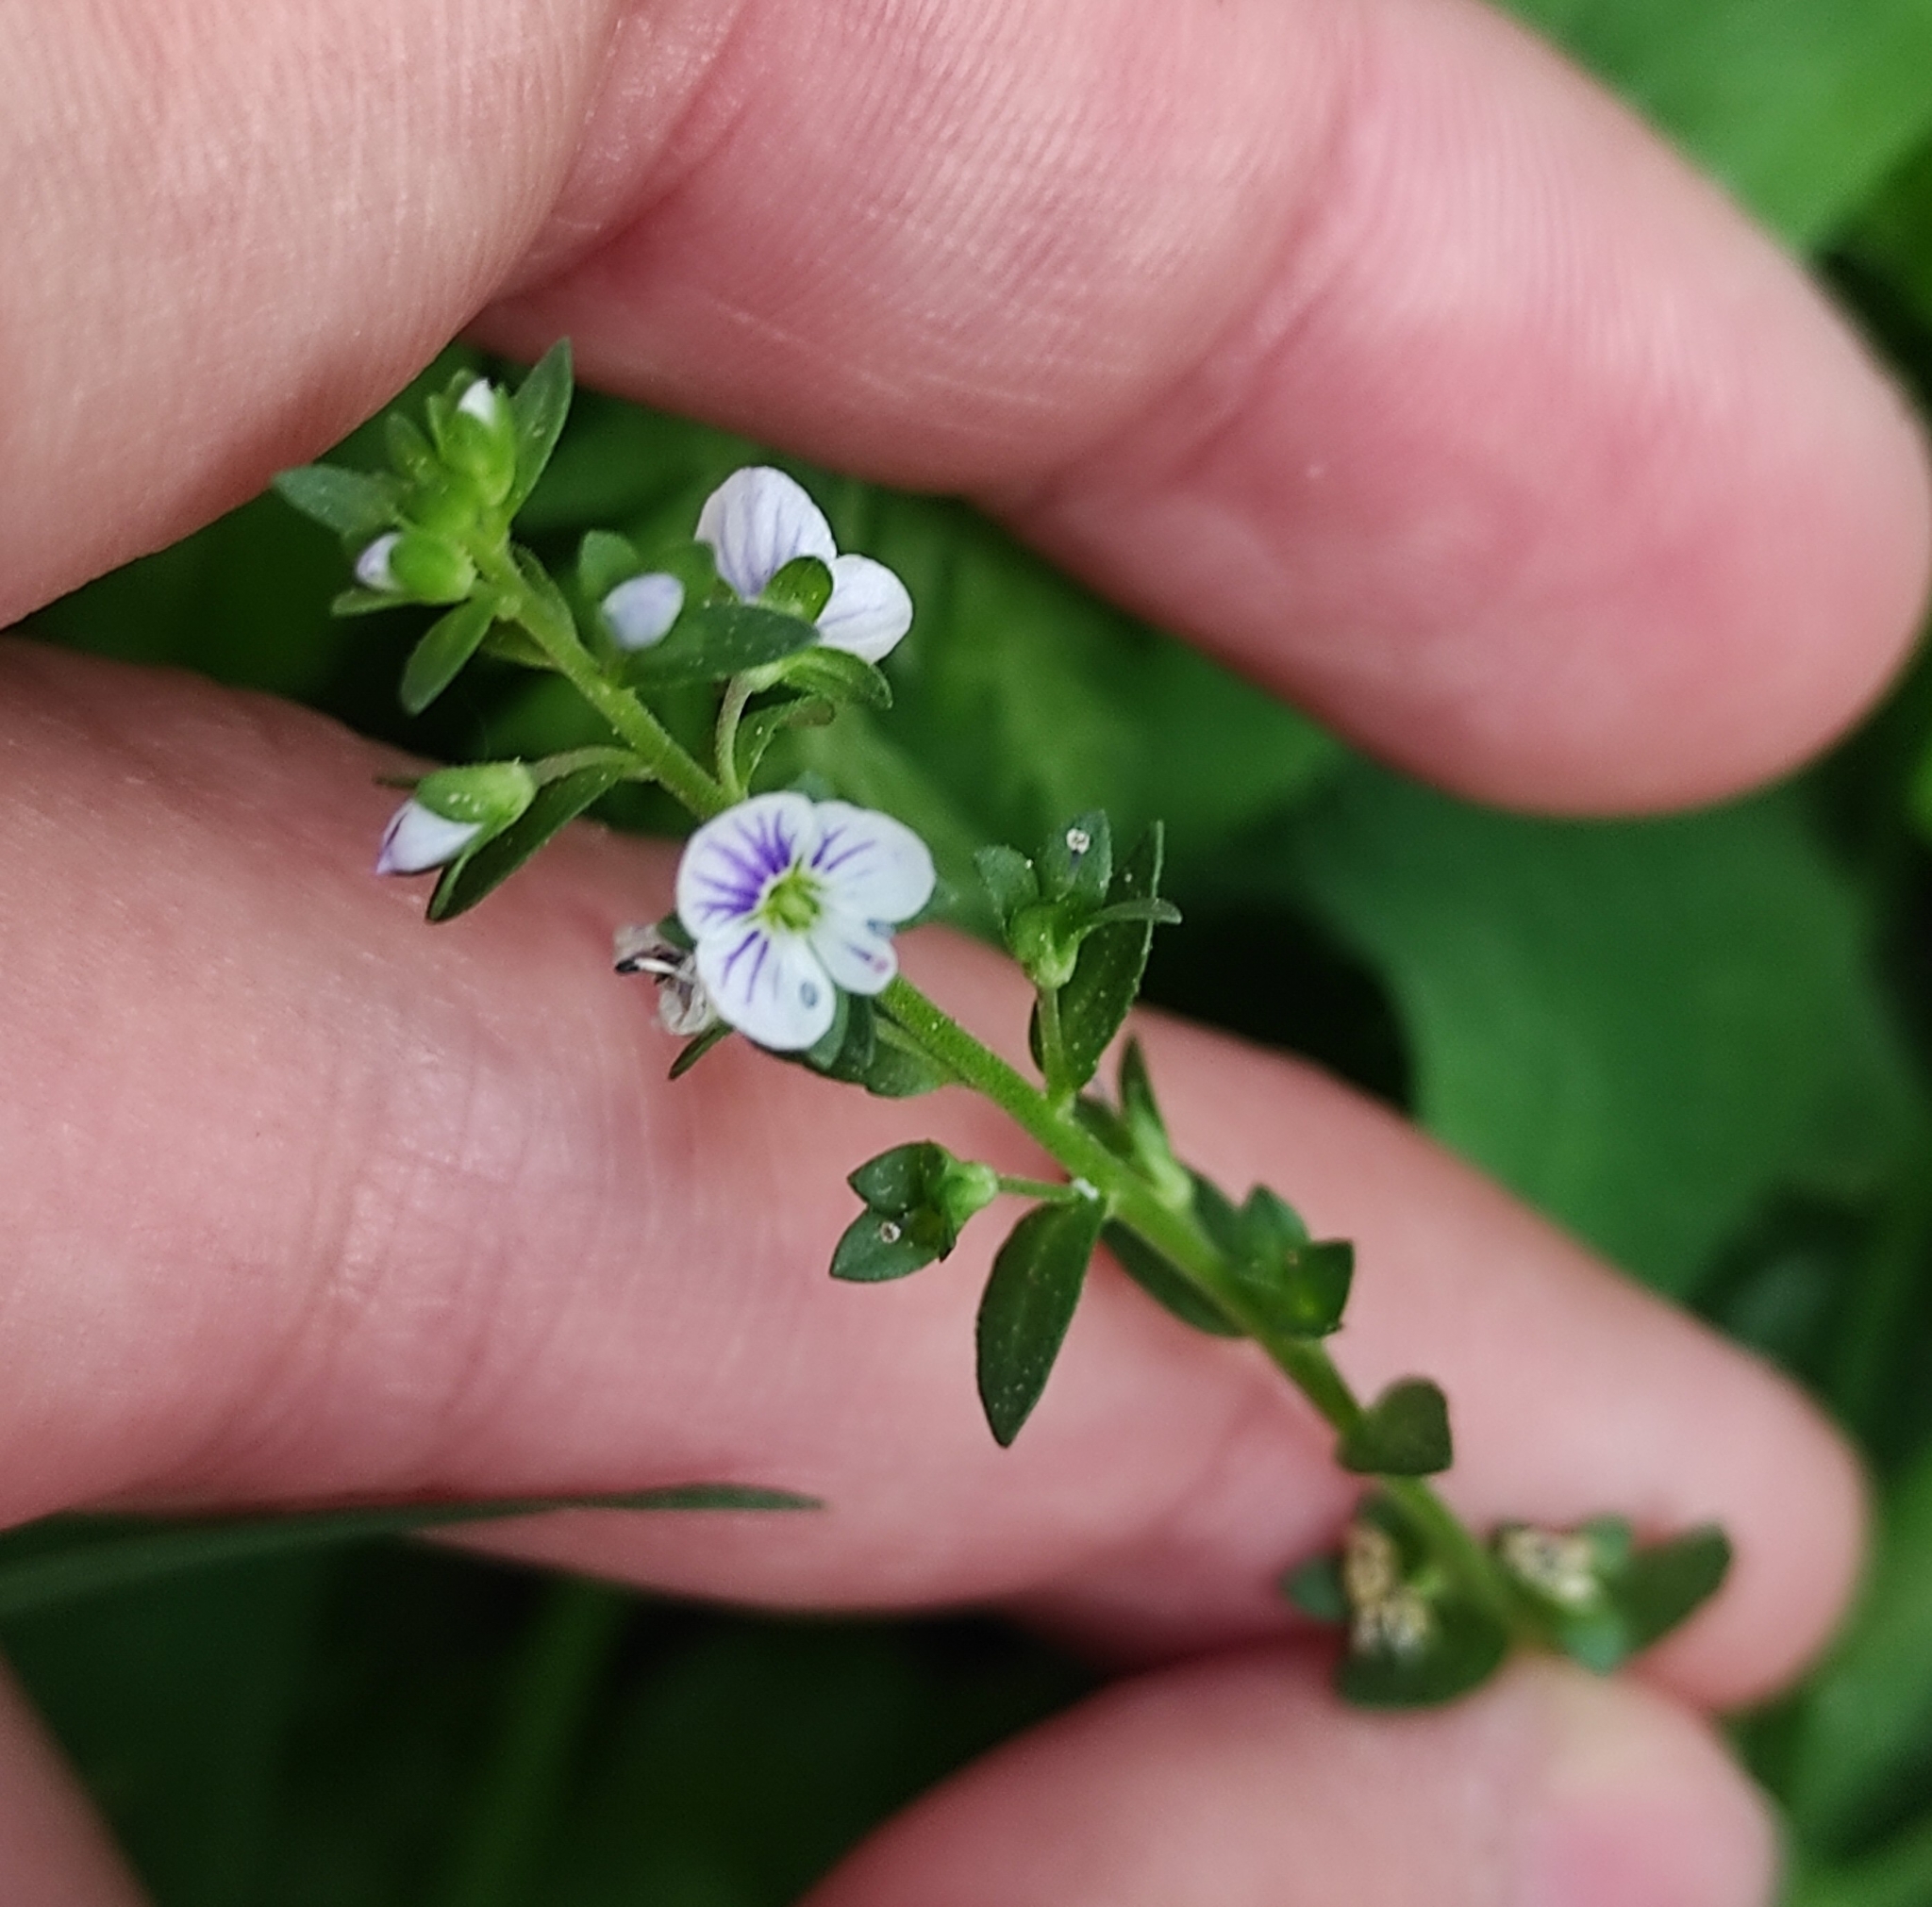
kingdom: Plantae
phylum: Tracheophyta
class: Magnoliopsida
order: Lamiales
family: Plantaginaceae
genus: Veronica
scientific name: Veronica serpyllifolia
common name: Thyme-leaved speedwell
